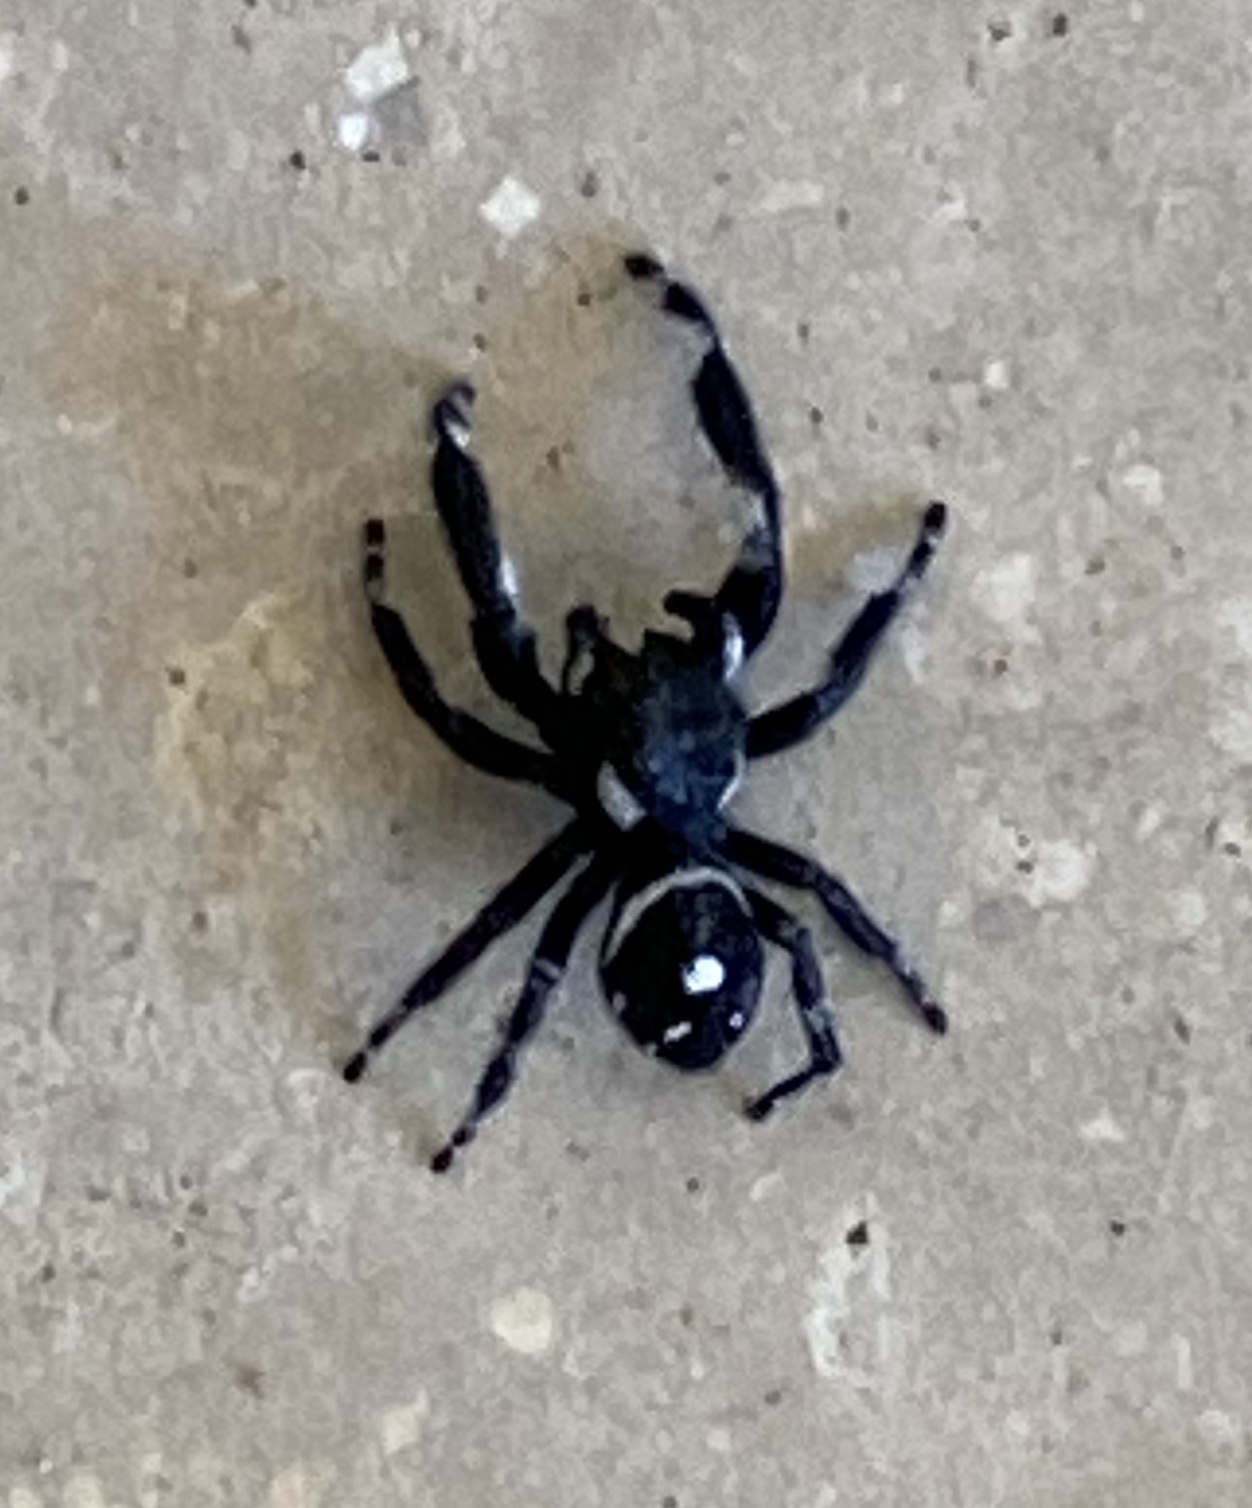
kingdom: Animalia
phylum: Arthropoda
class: Arachnida
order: Araneae
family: Salticidae
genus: Phidippus
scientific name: Phidippus audax
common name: Bold jumper
